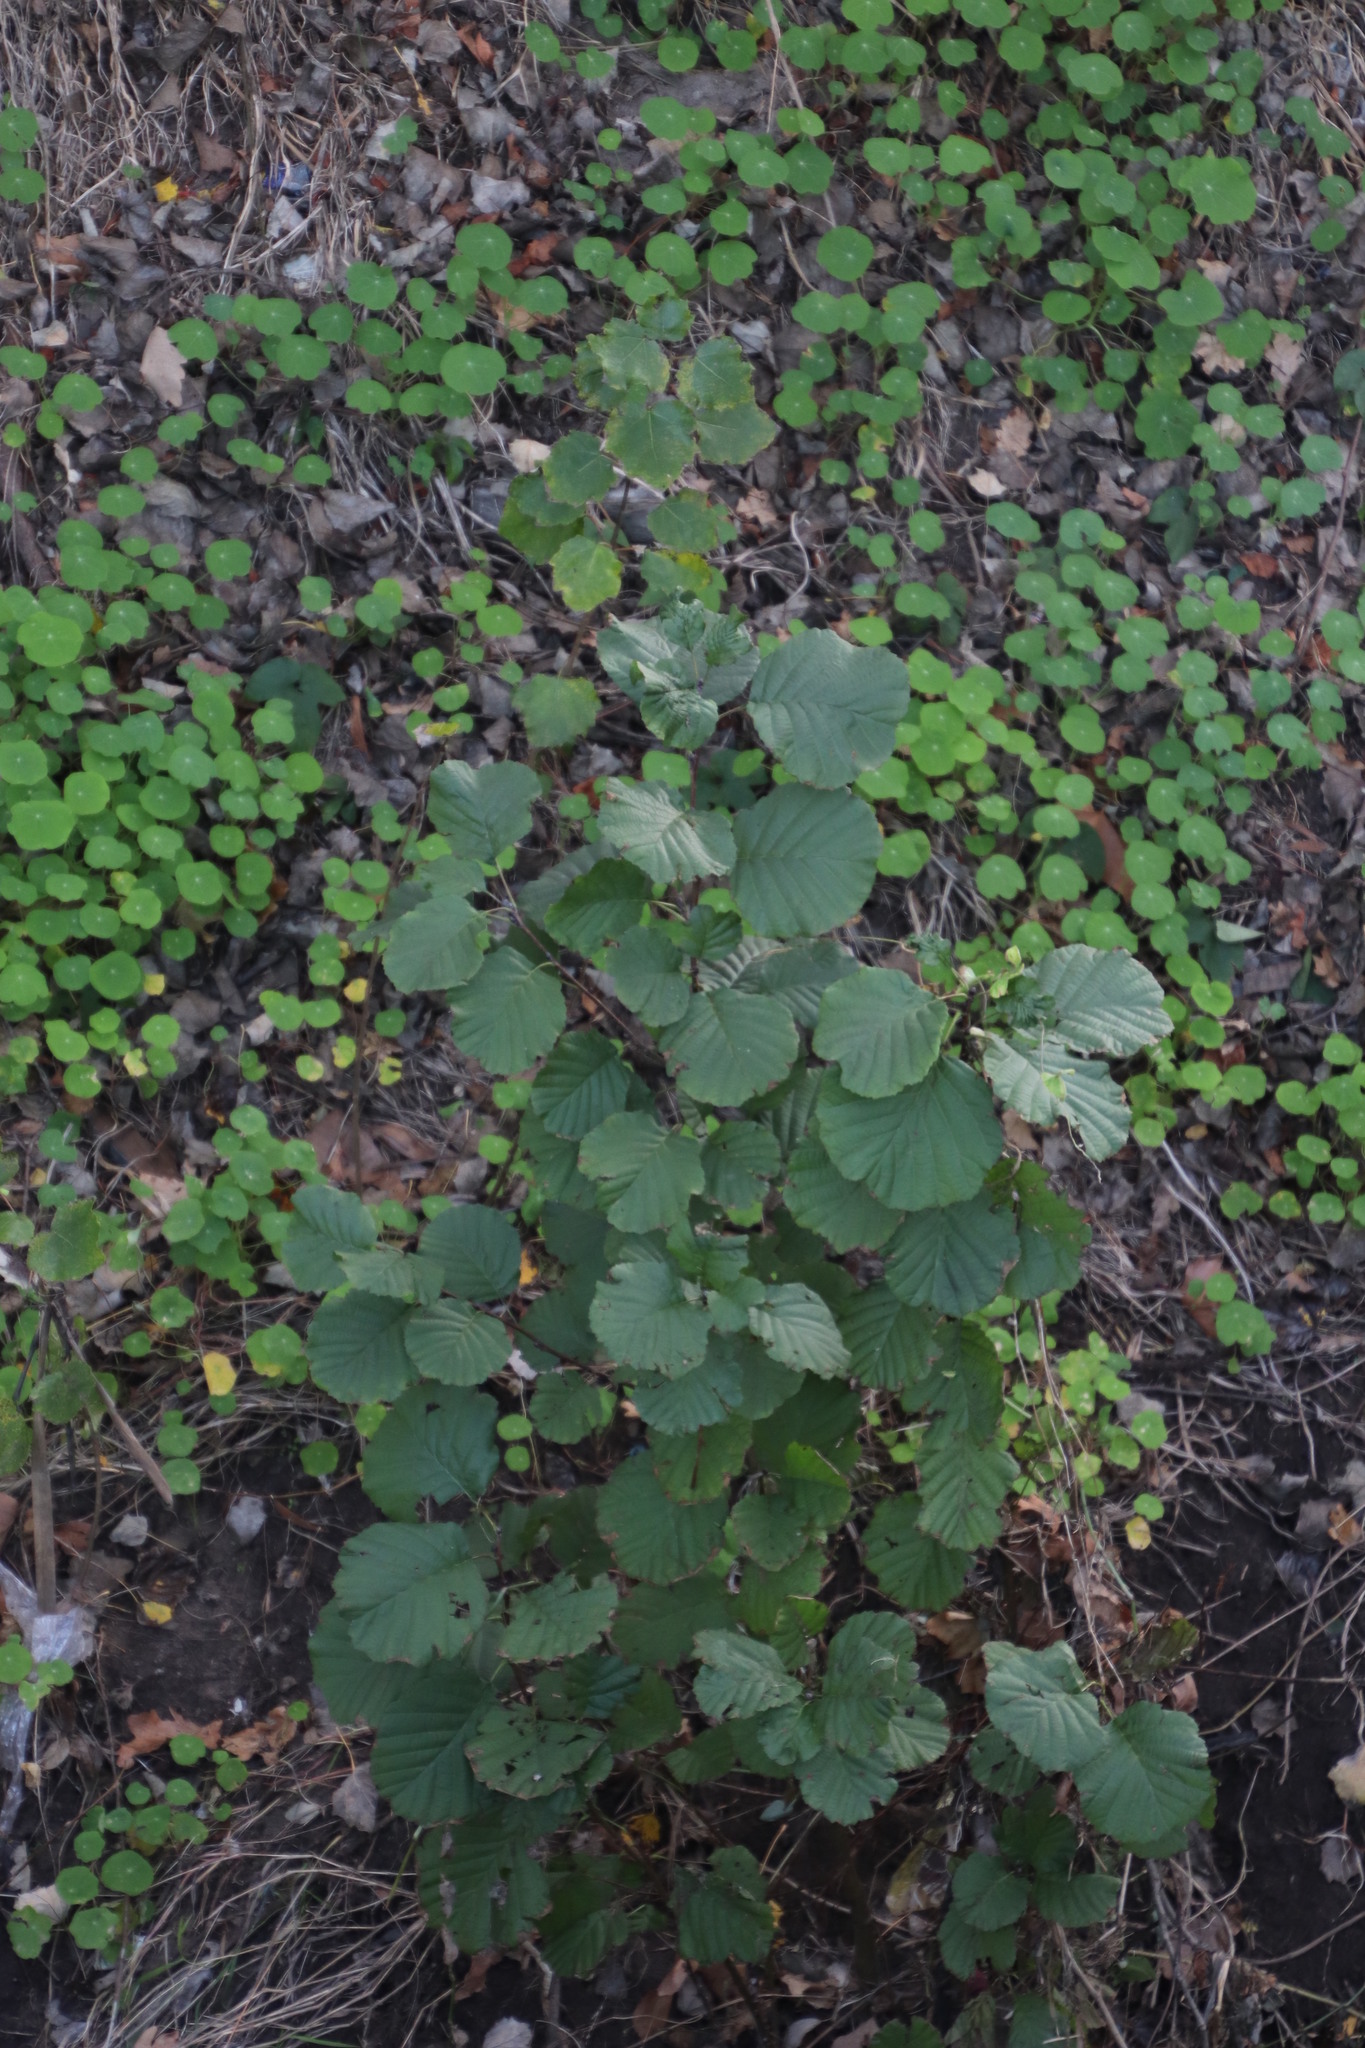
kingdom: Plantae
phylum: Tracheophyta
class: Magnoliopsida
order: Fagales
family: Betulaceae
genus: Alnus
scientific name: Alnus glutinosa
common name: Black alder
